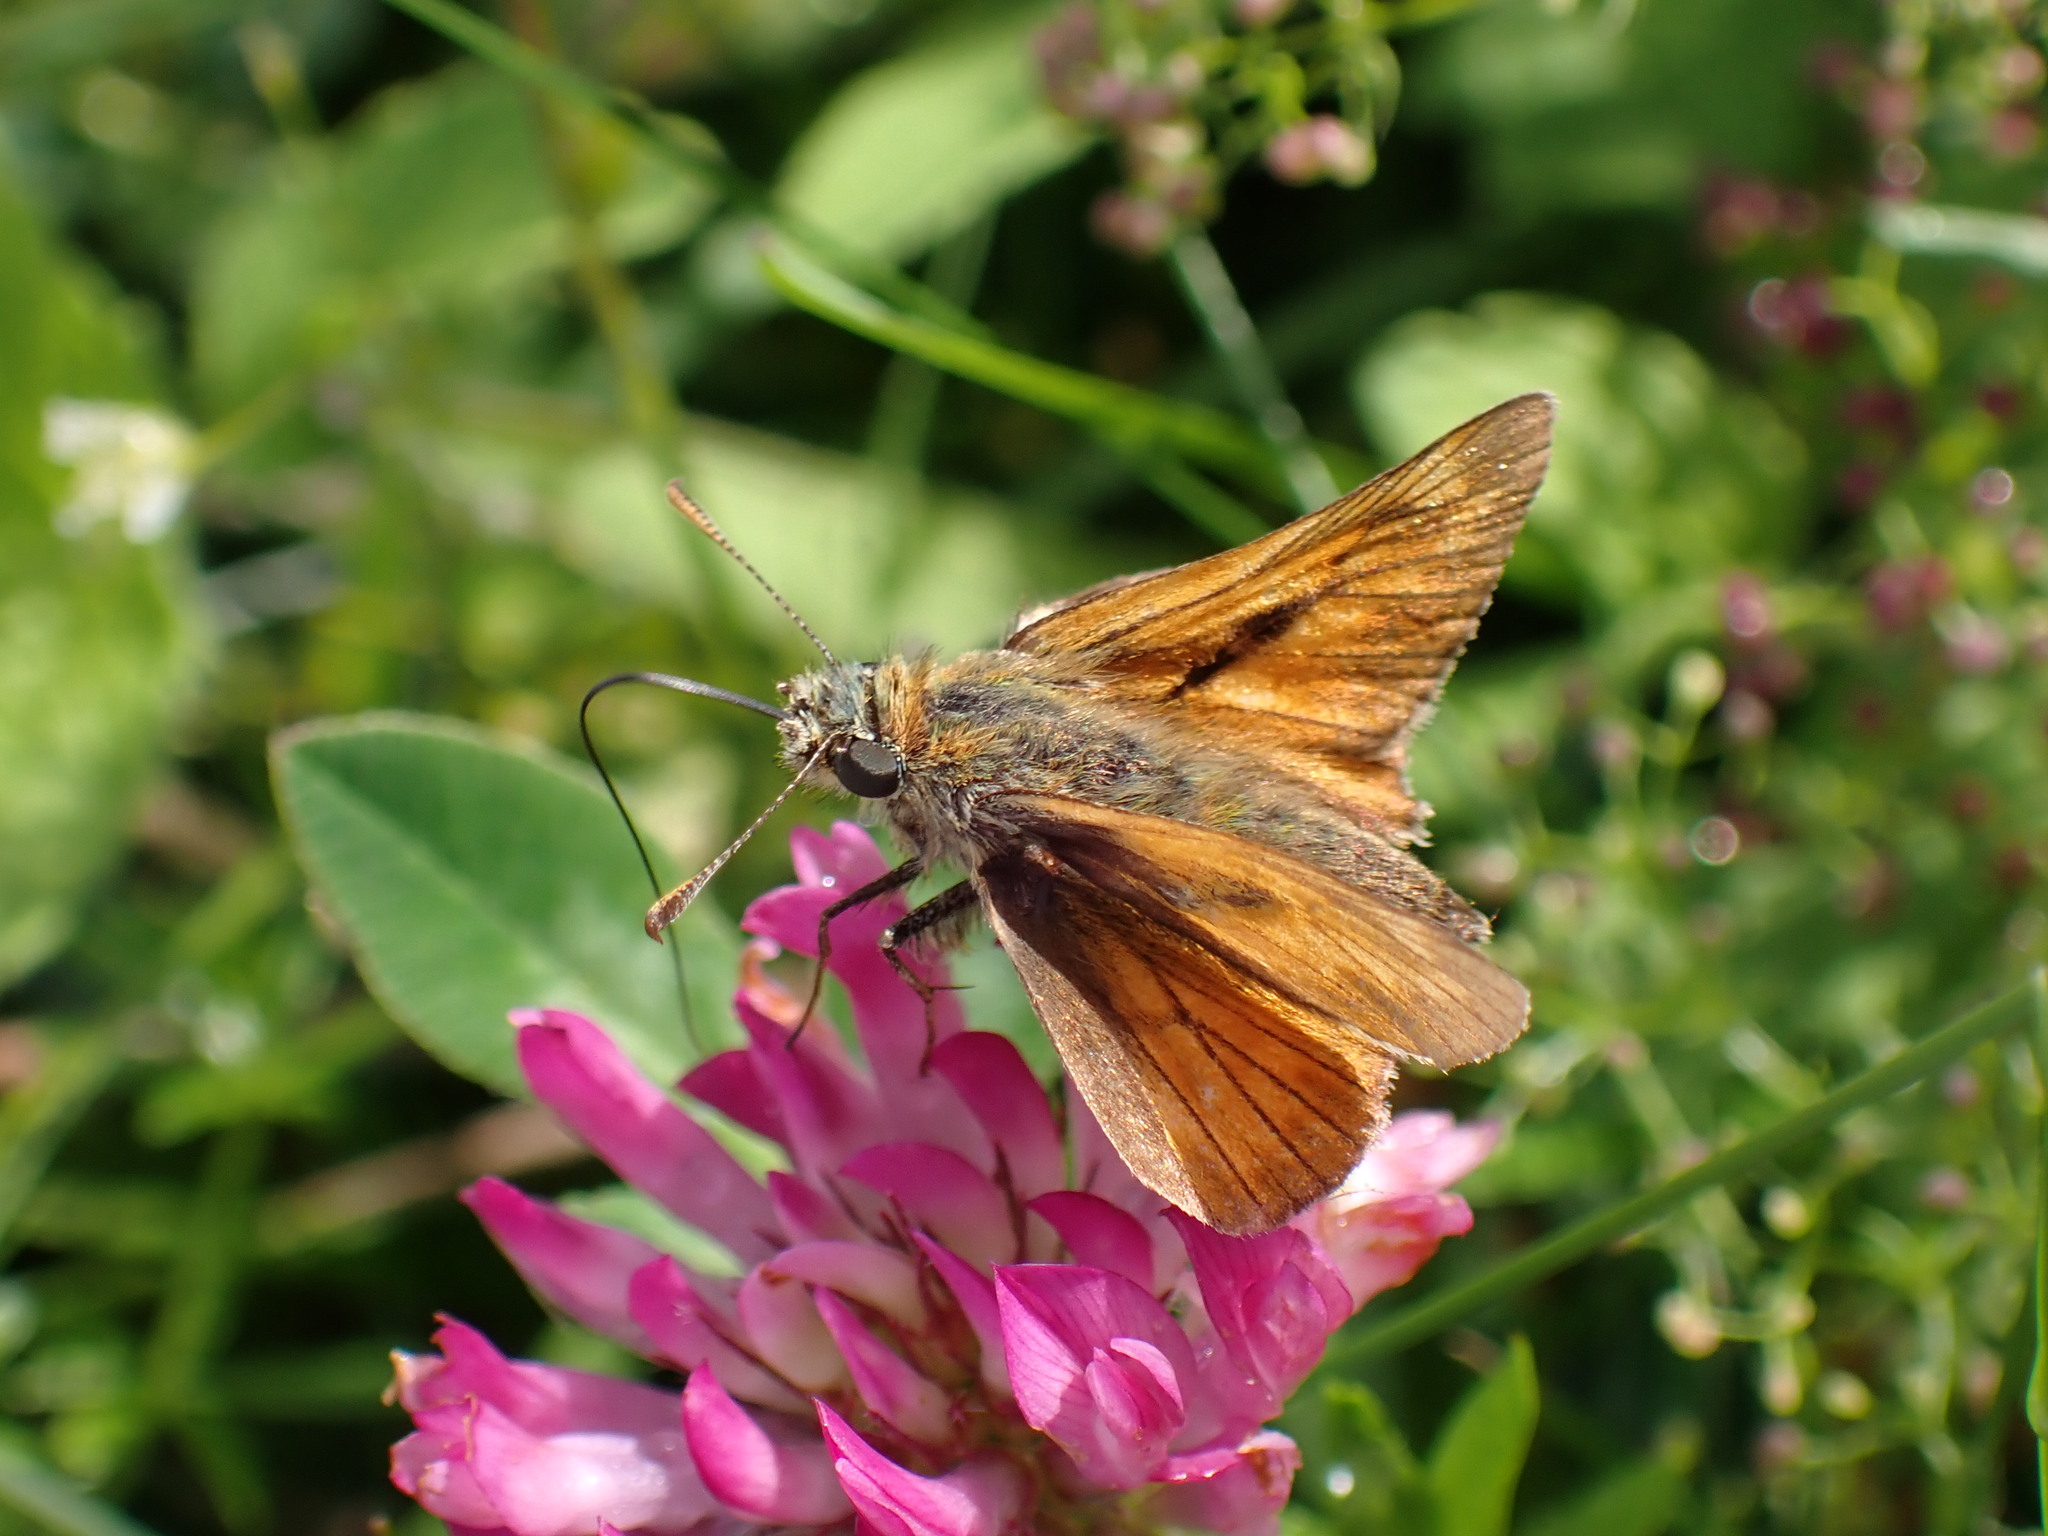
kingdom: Animalia
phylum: Arthropoda
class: Insecta
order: Lepidoptera
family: Hesperiidae
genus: Ochlodes
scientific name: Ochlodes venata
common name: Large skipper
